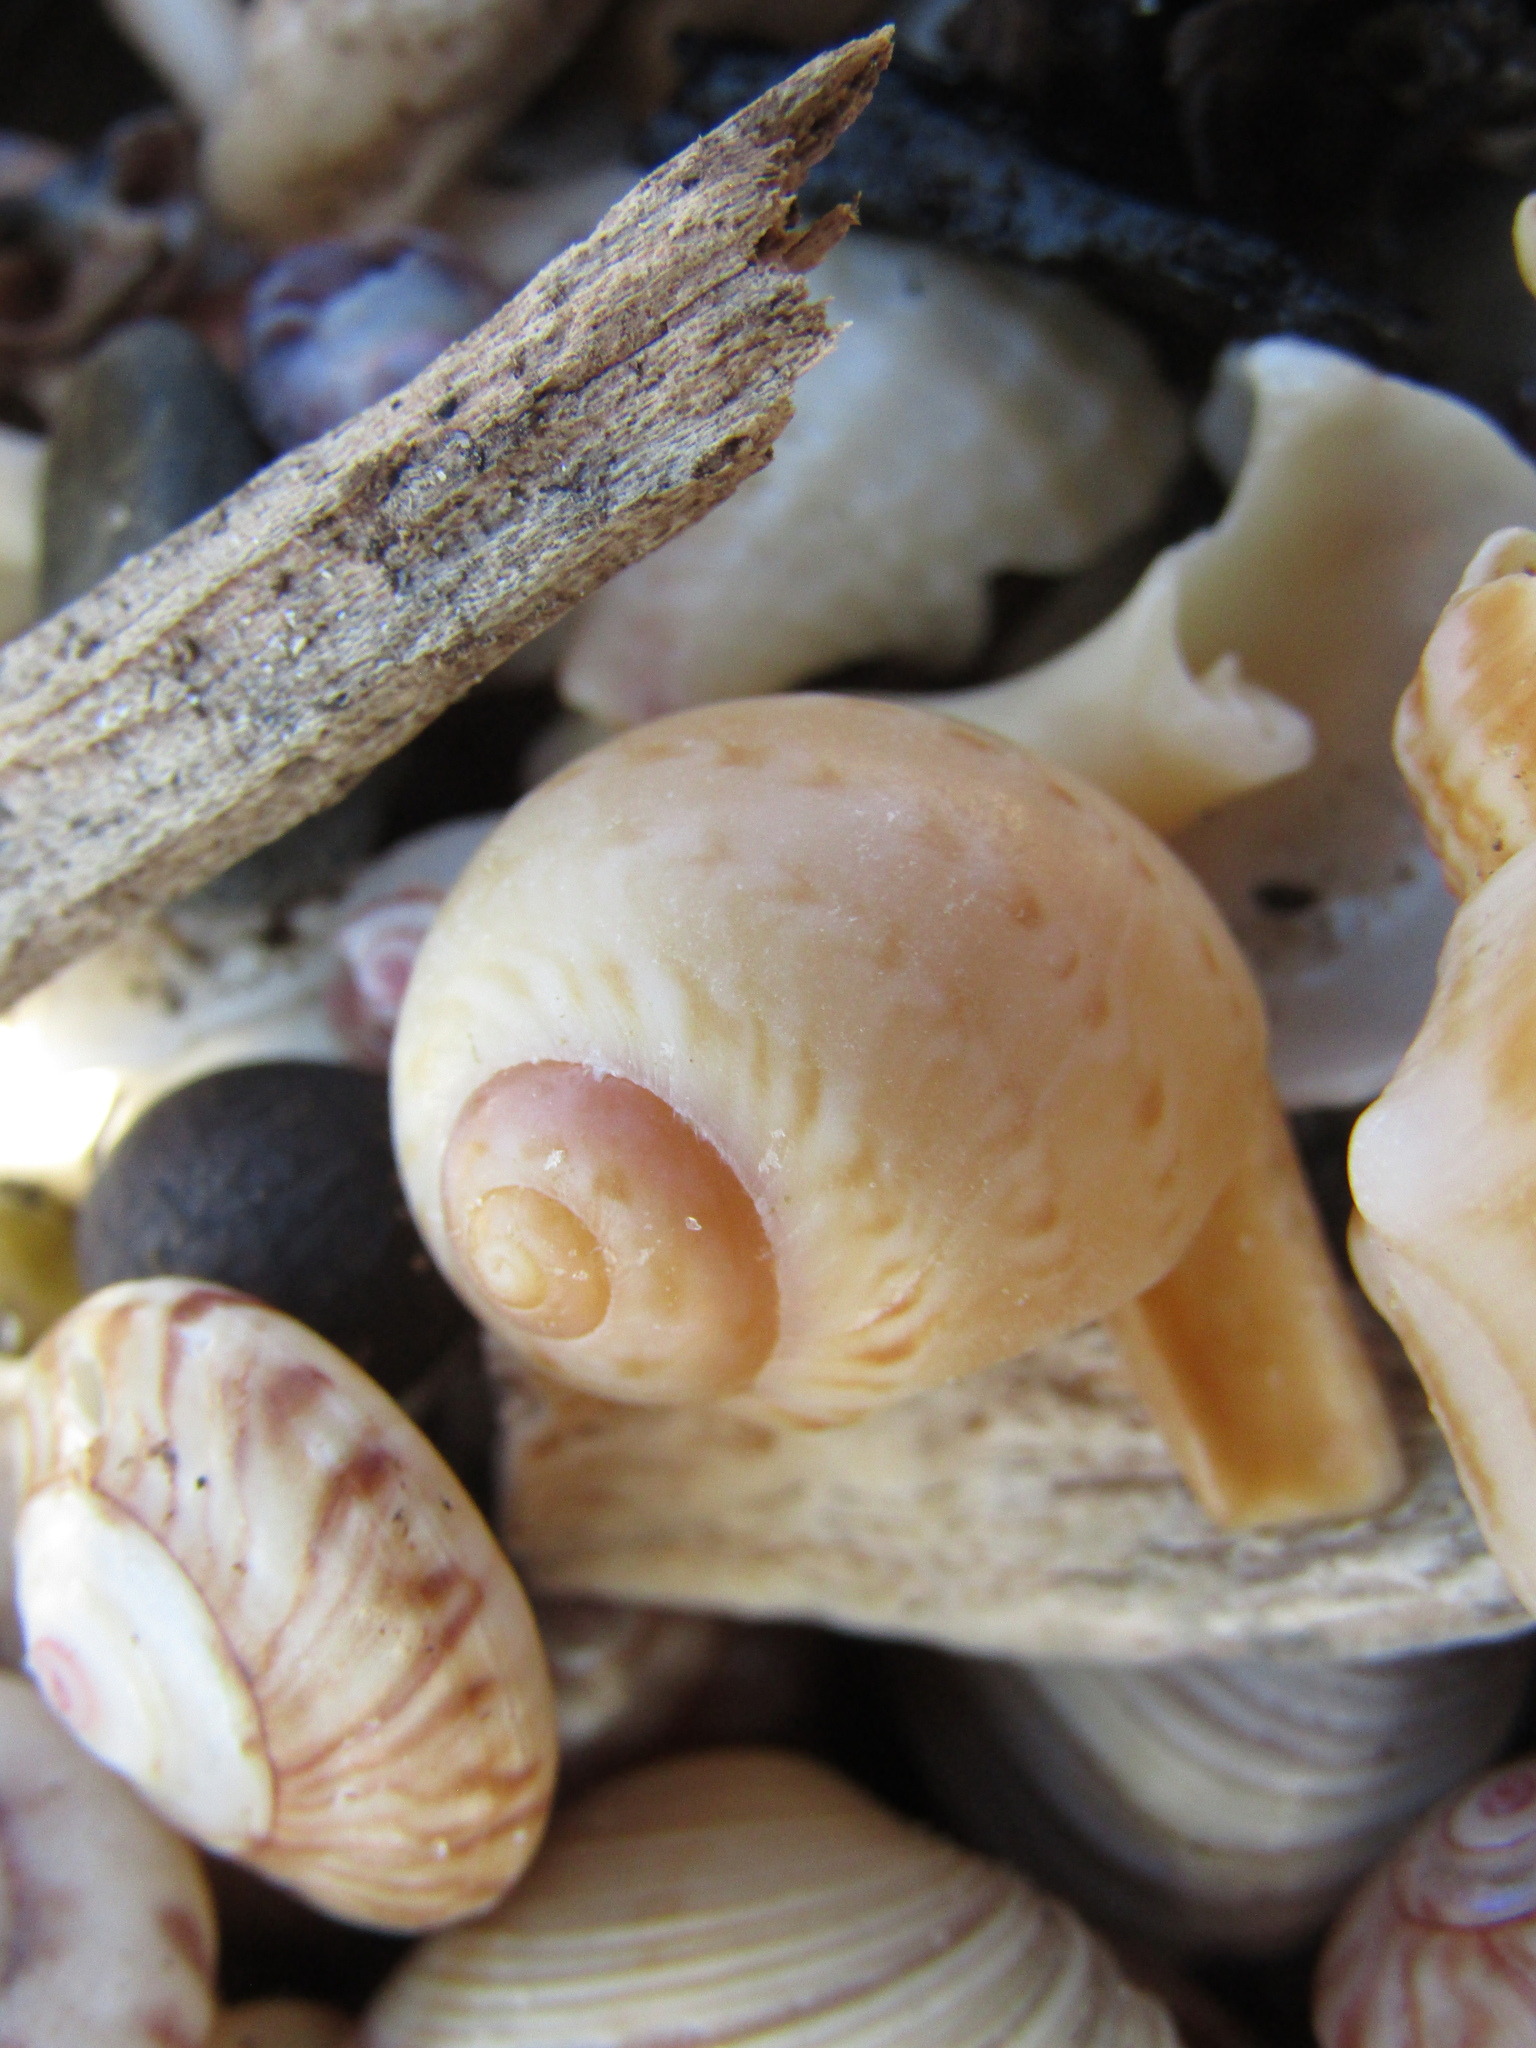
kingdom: Animalia
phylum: Mollusca
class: Gastropoda
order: Littorinimorpha
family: Naticidae
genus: Tanea
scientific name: Tanea zelandica
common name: New zealand moonsnail
